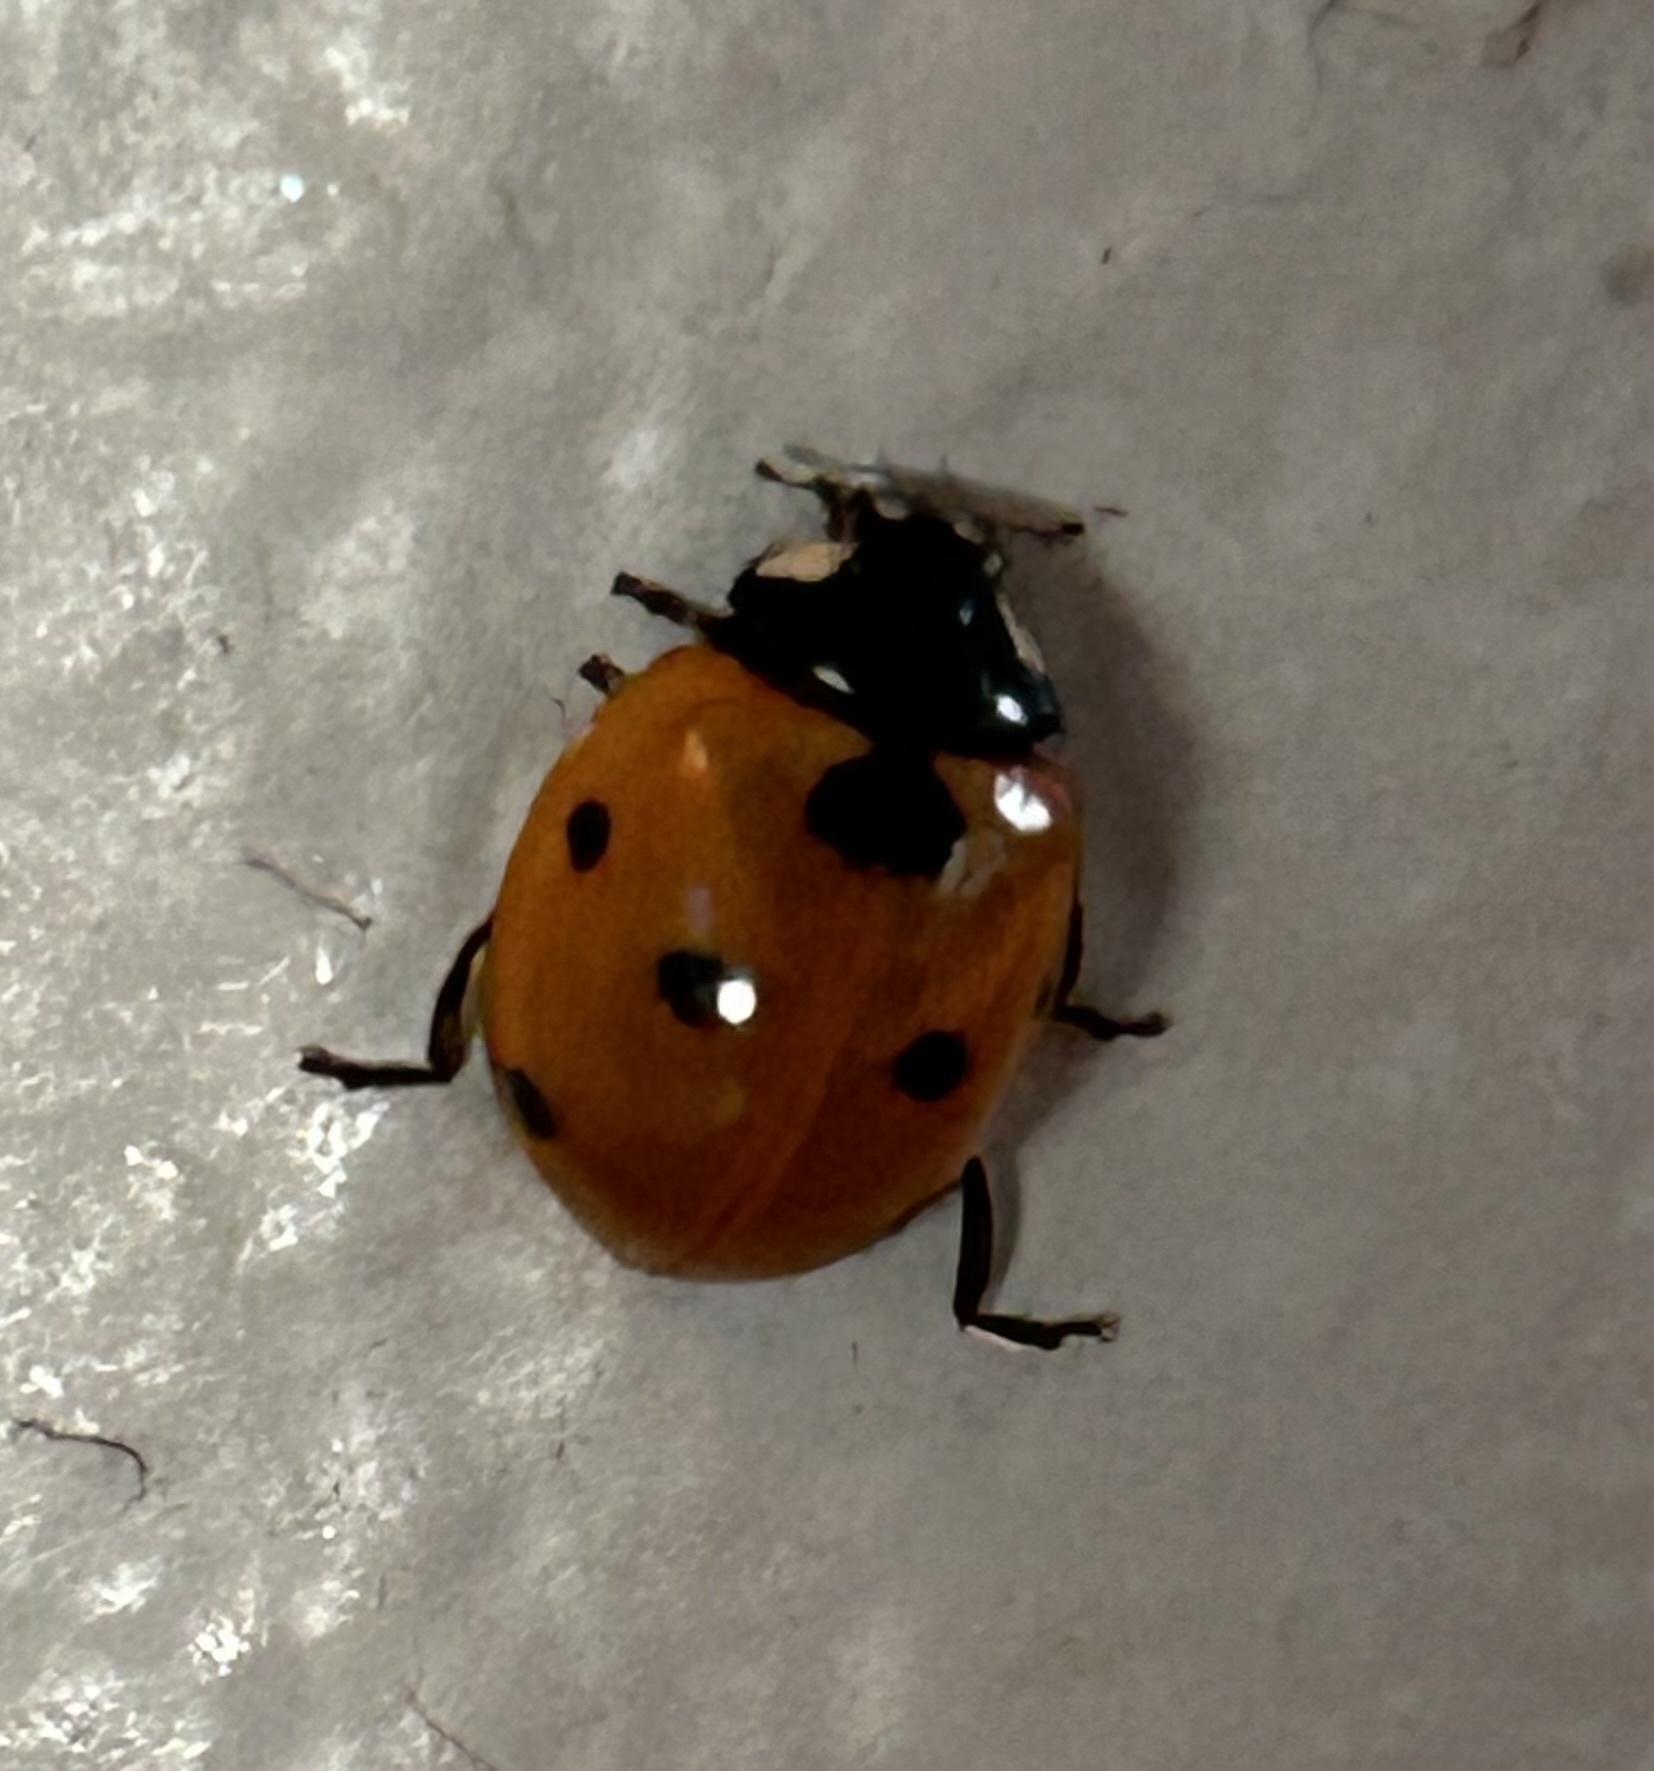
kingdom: Animalia
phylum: Arthropoda
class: Insecta
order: Coleoptera
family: Coccinellidae
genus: Coccinella
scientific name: Coccinella septempunctata
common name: Sevenspotted lady beetle
